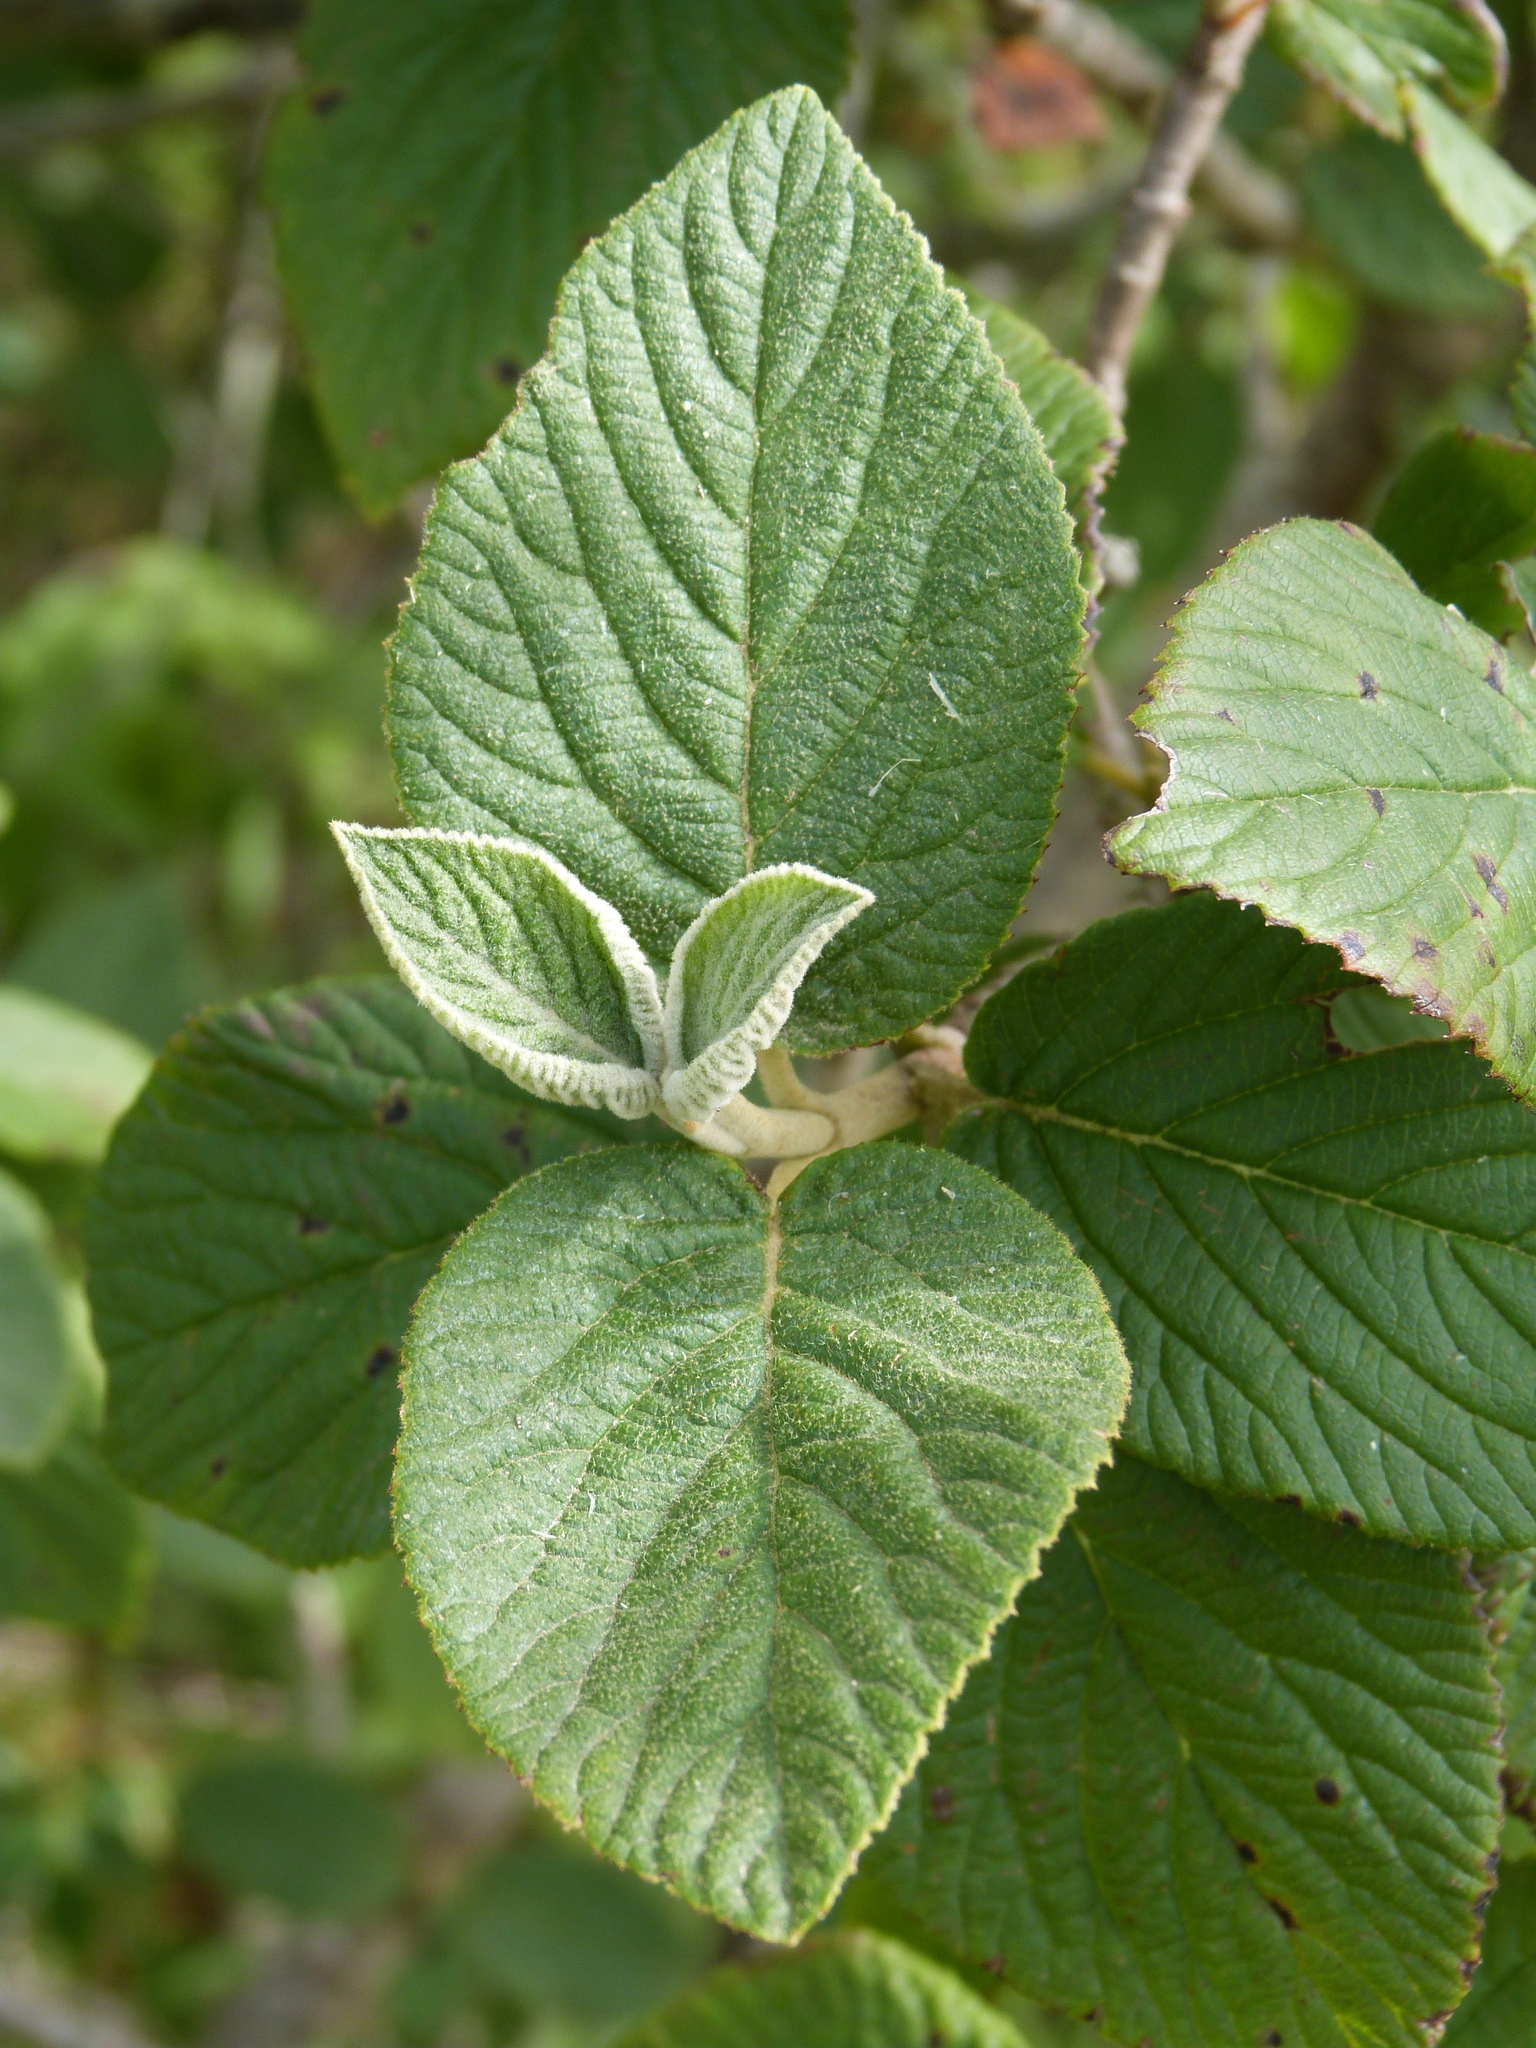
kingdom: Plantae
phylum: Tracheophyta
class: Magnoliopsida
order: Dipsacales
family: Viburnaceae
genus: Viburnum
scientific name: Viburnum lantana
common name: Wayfaring tree
